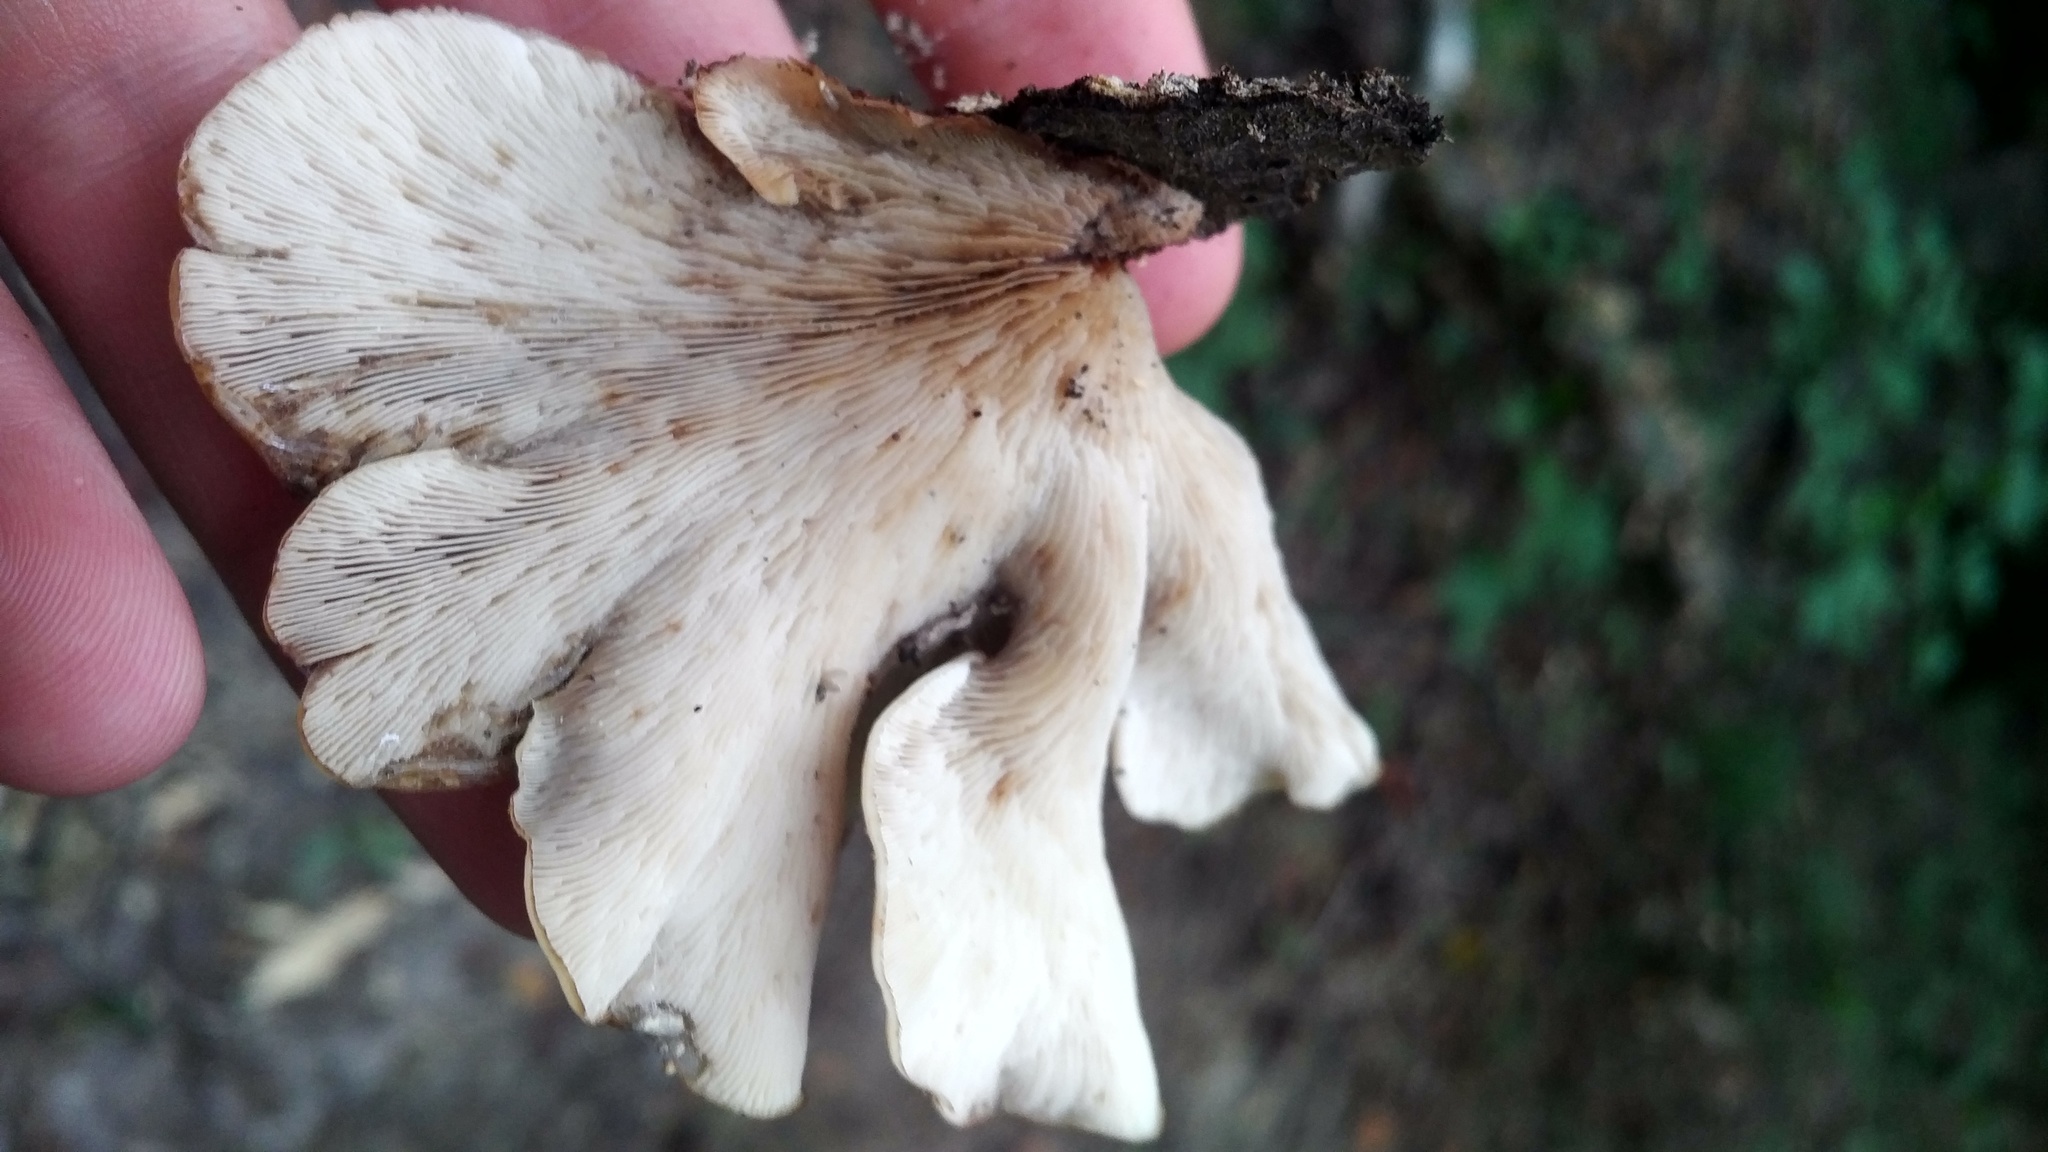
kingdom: Fungi
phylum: Basidiomycota
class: Agaricomycetes
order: Russulales
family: Auriscalpiaceae
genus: Lentinellus
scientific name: Lentinellus ursinus
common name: Bear lentinus
